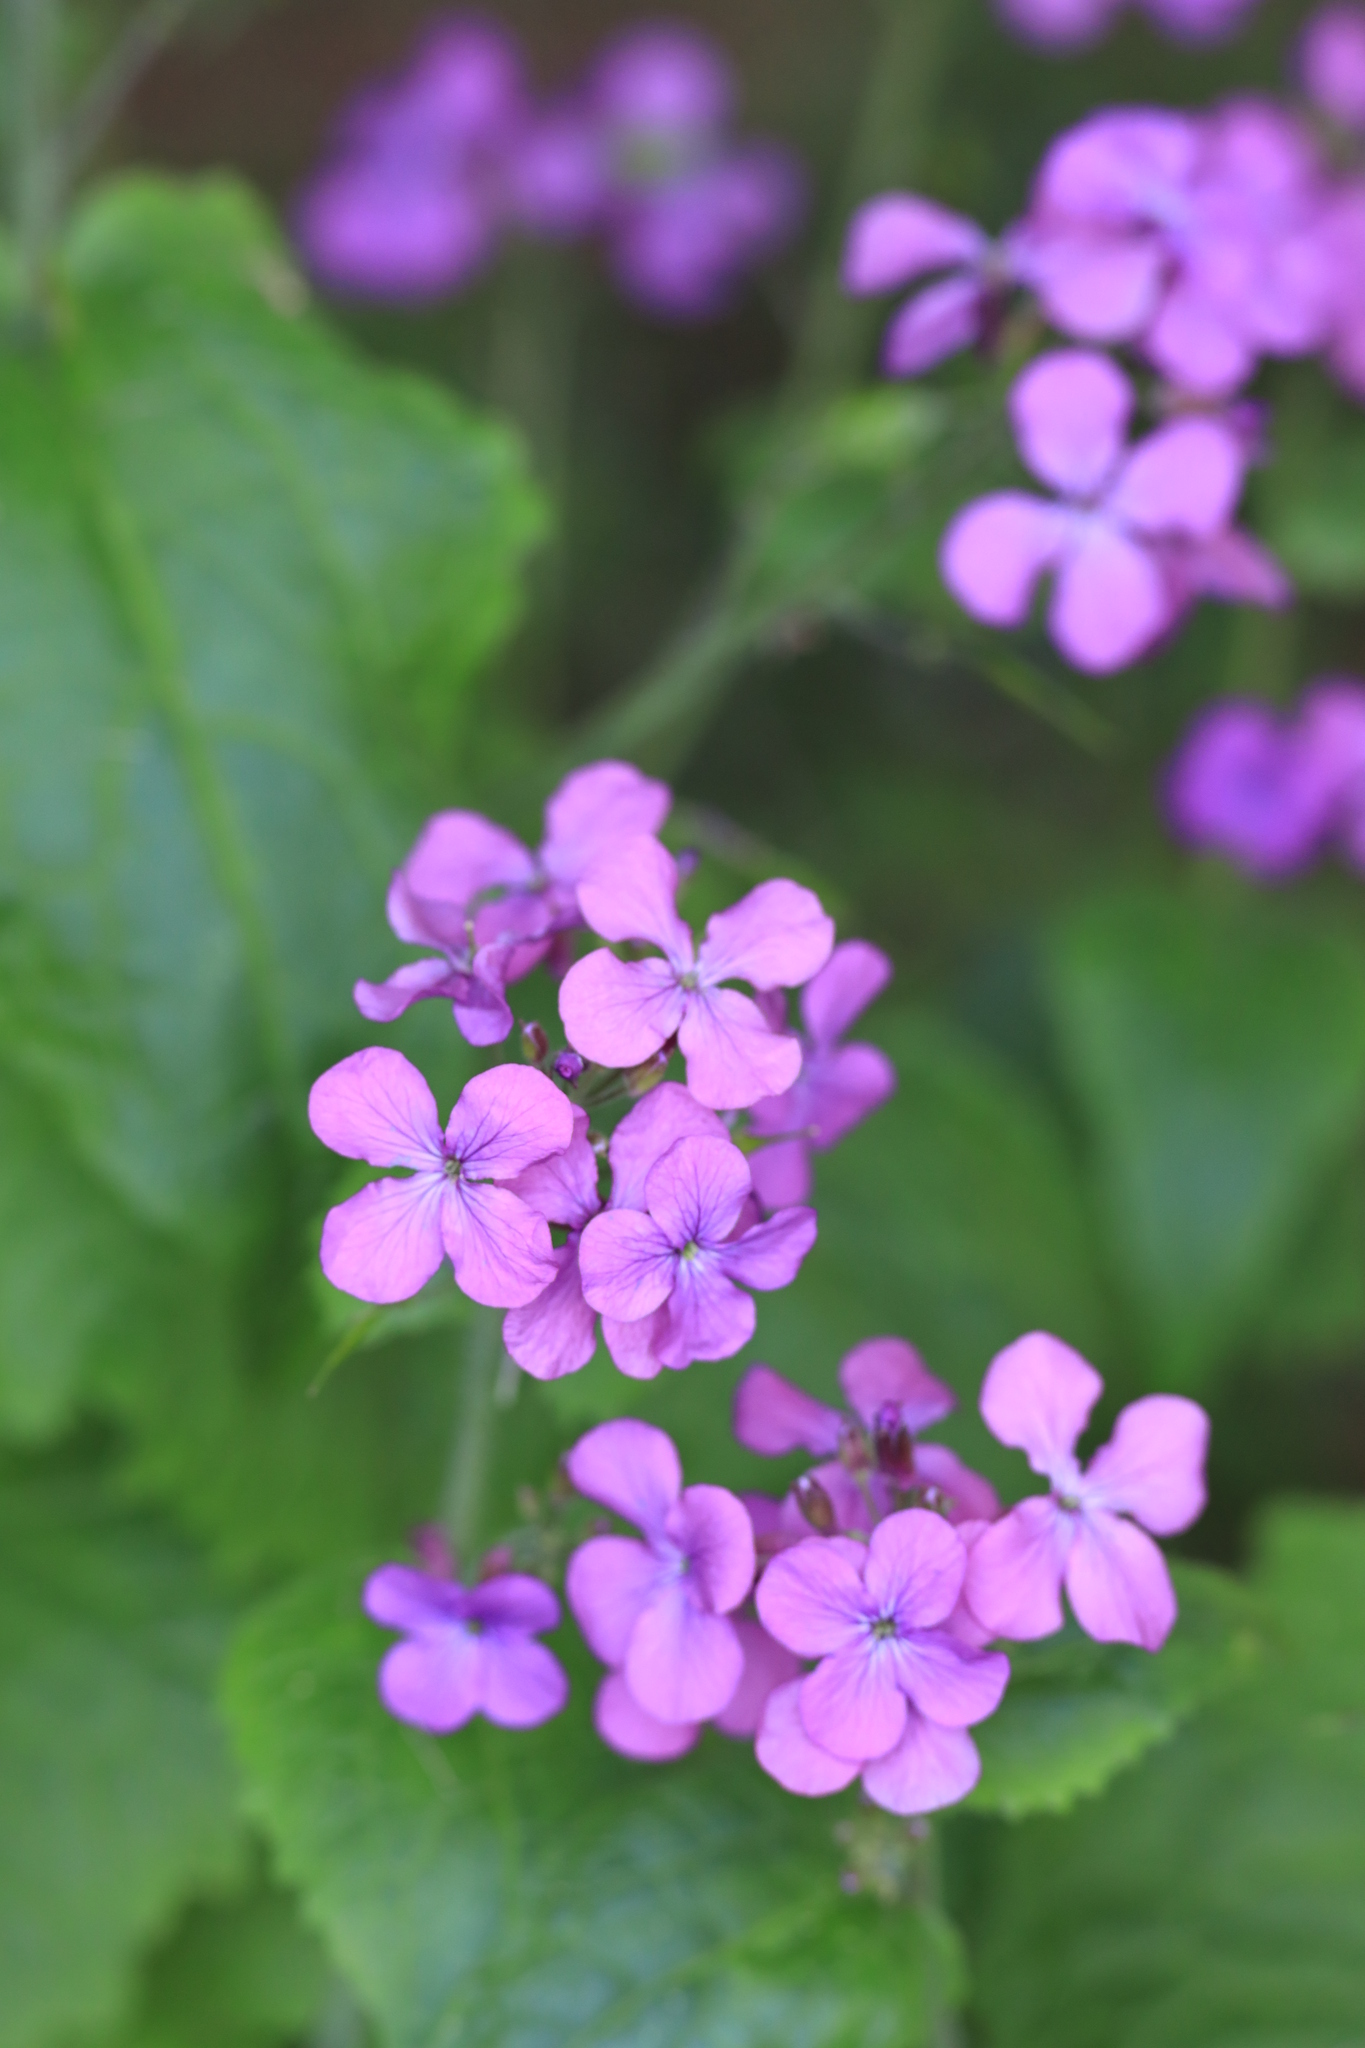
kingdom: Plantae
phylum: Tracheophyta
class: Magnoliopsida
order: Brassicales
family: Brassicaceae
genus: Lunaria
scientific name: Lunaria annua
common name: Honesty
